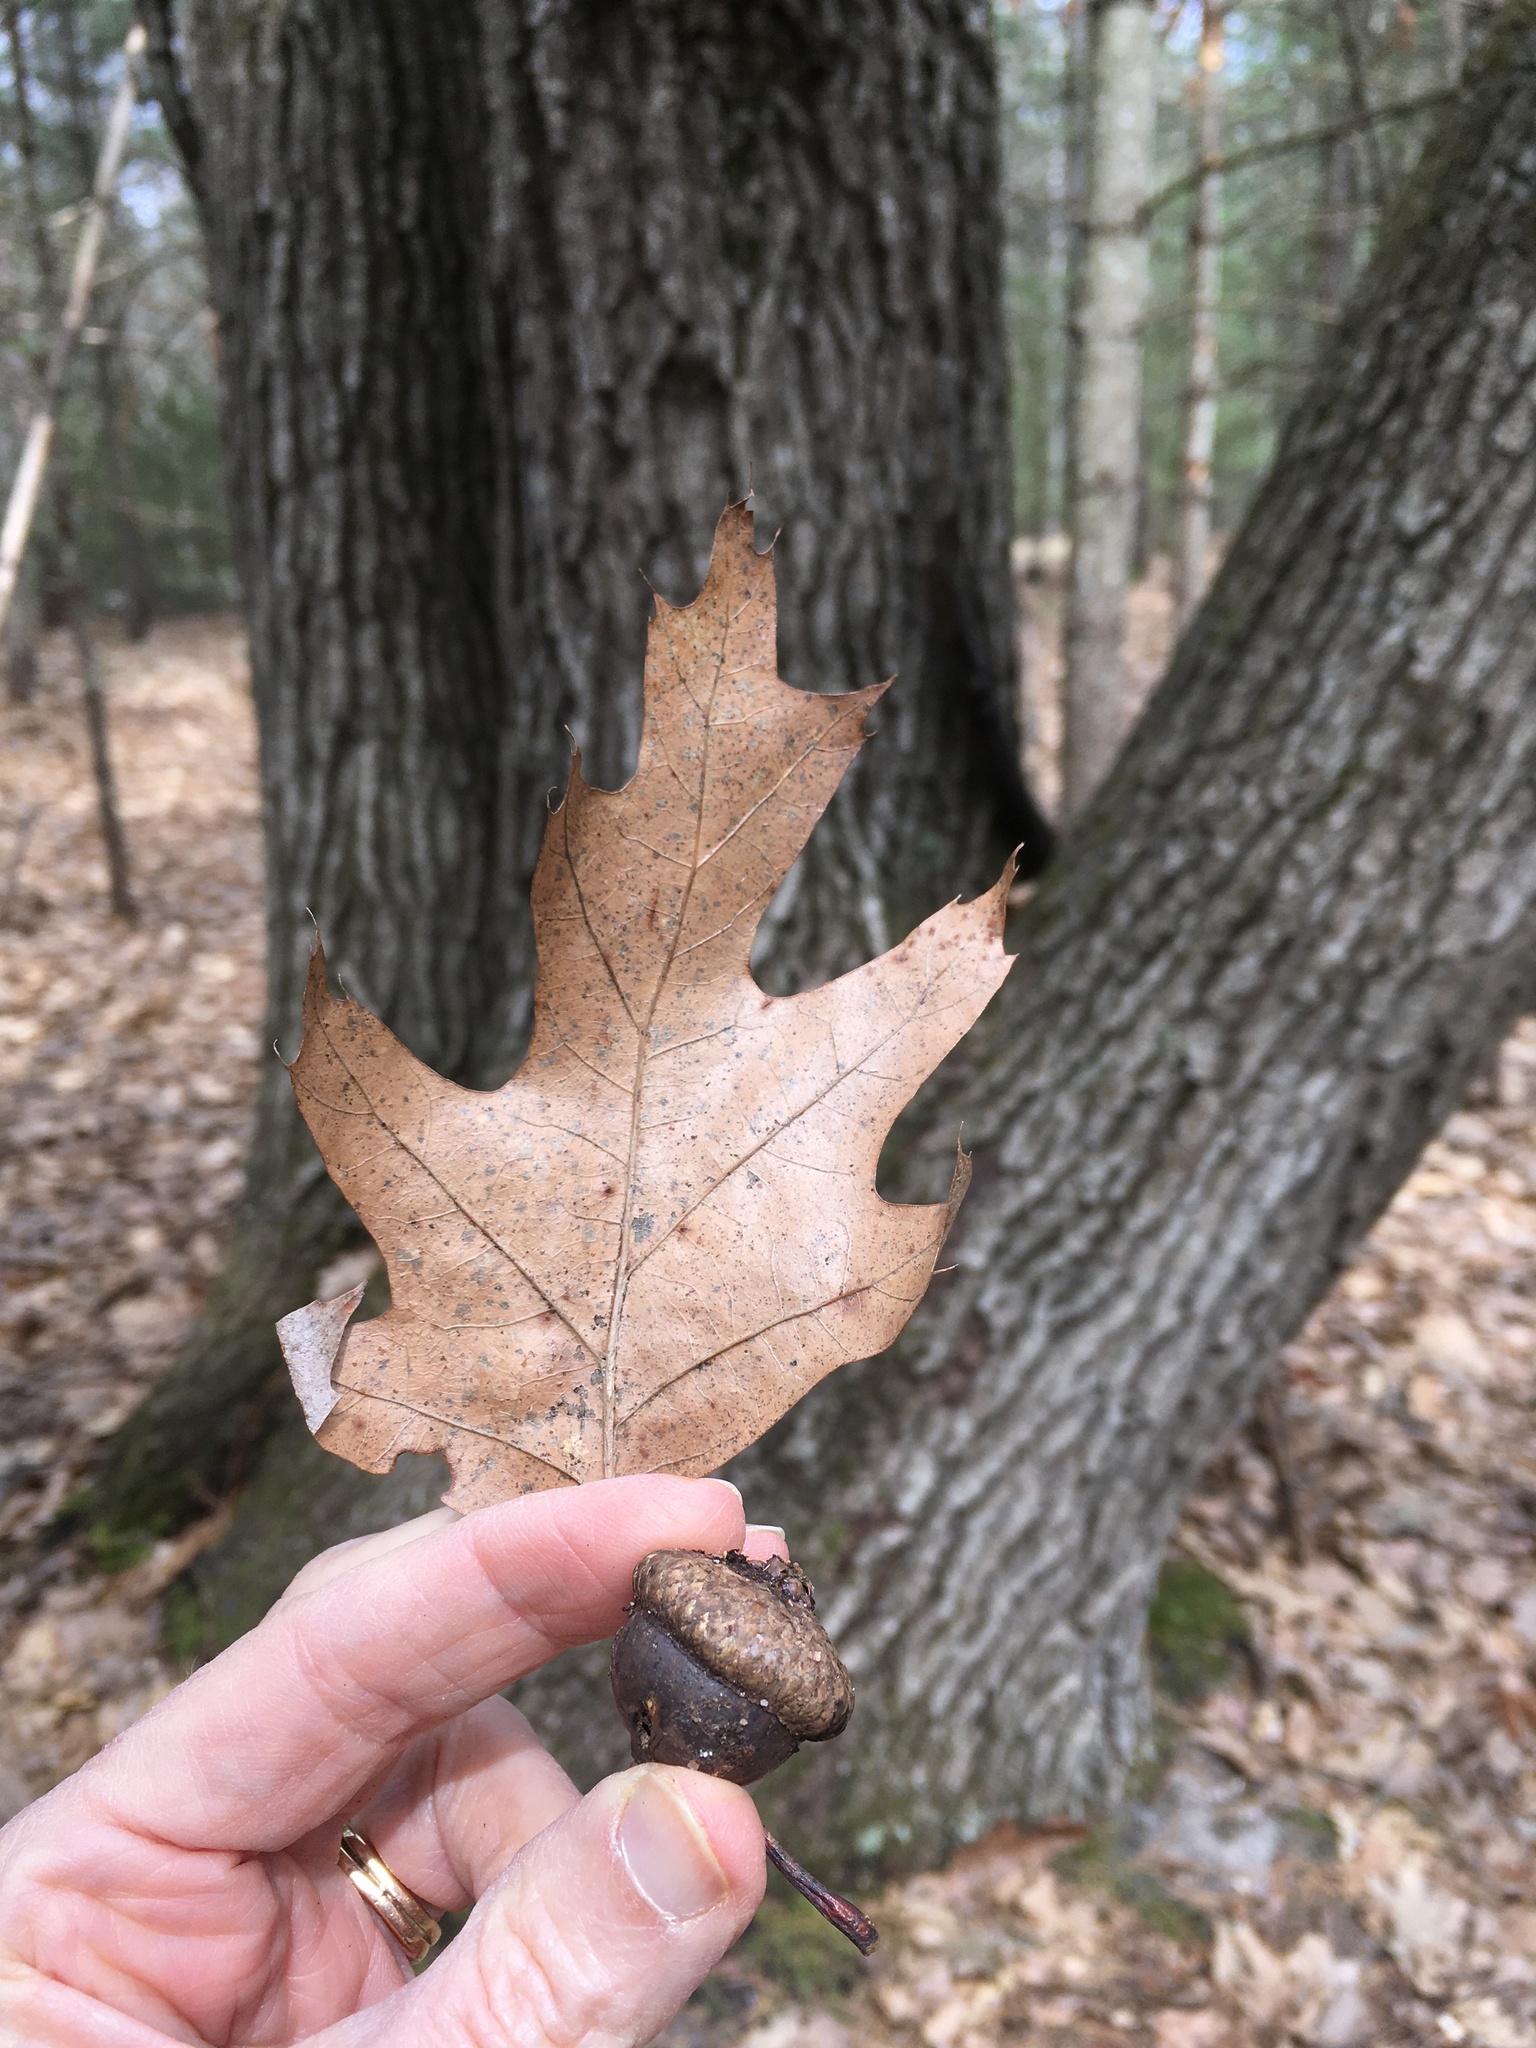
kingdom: Plantae
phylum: Tracheophyta
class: Magnoliopsida
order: Fagales
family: Fagaceae
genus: Quercus
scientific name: Quercus rubra
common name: Red oak
